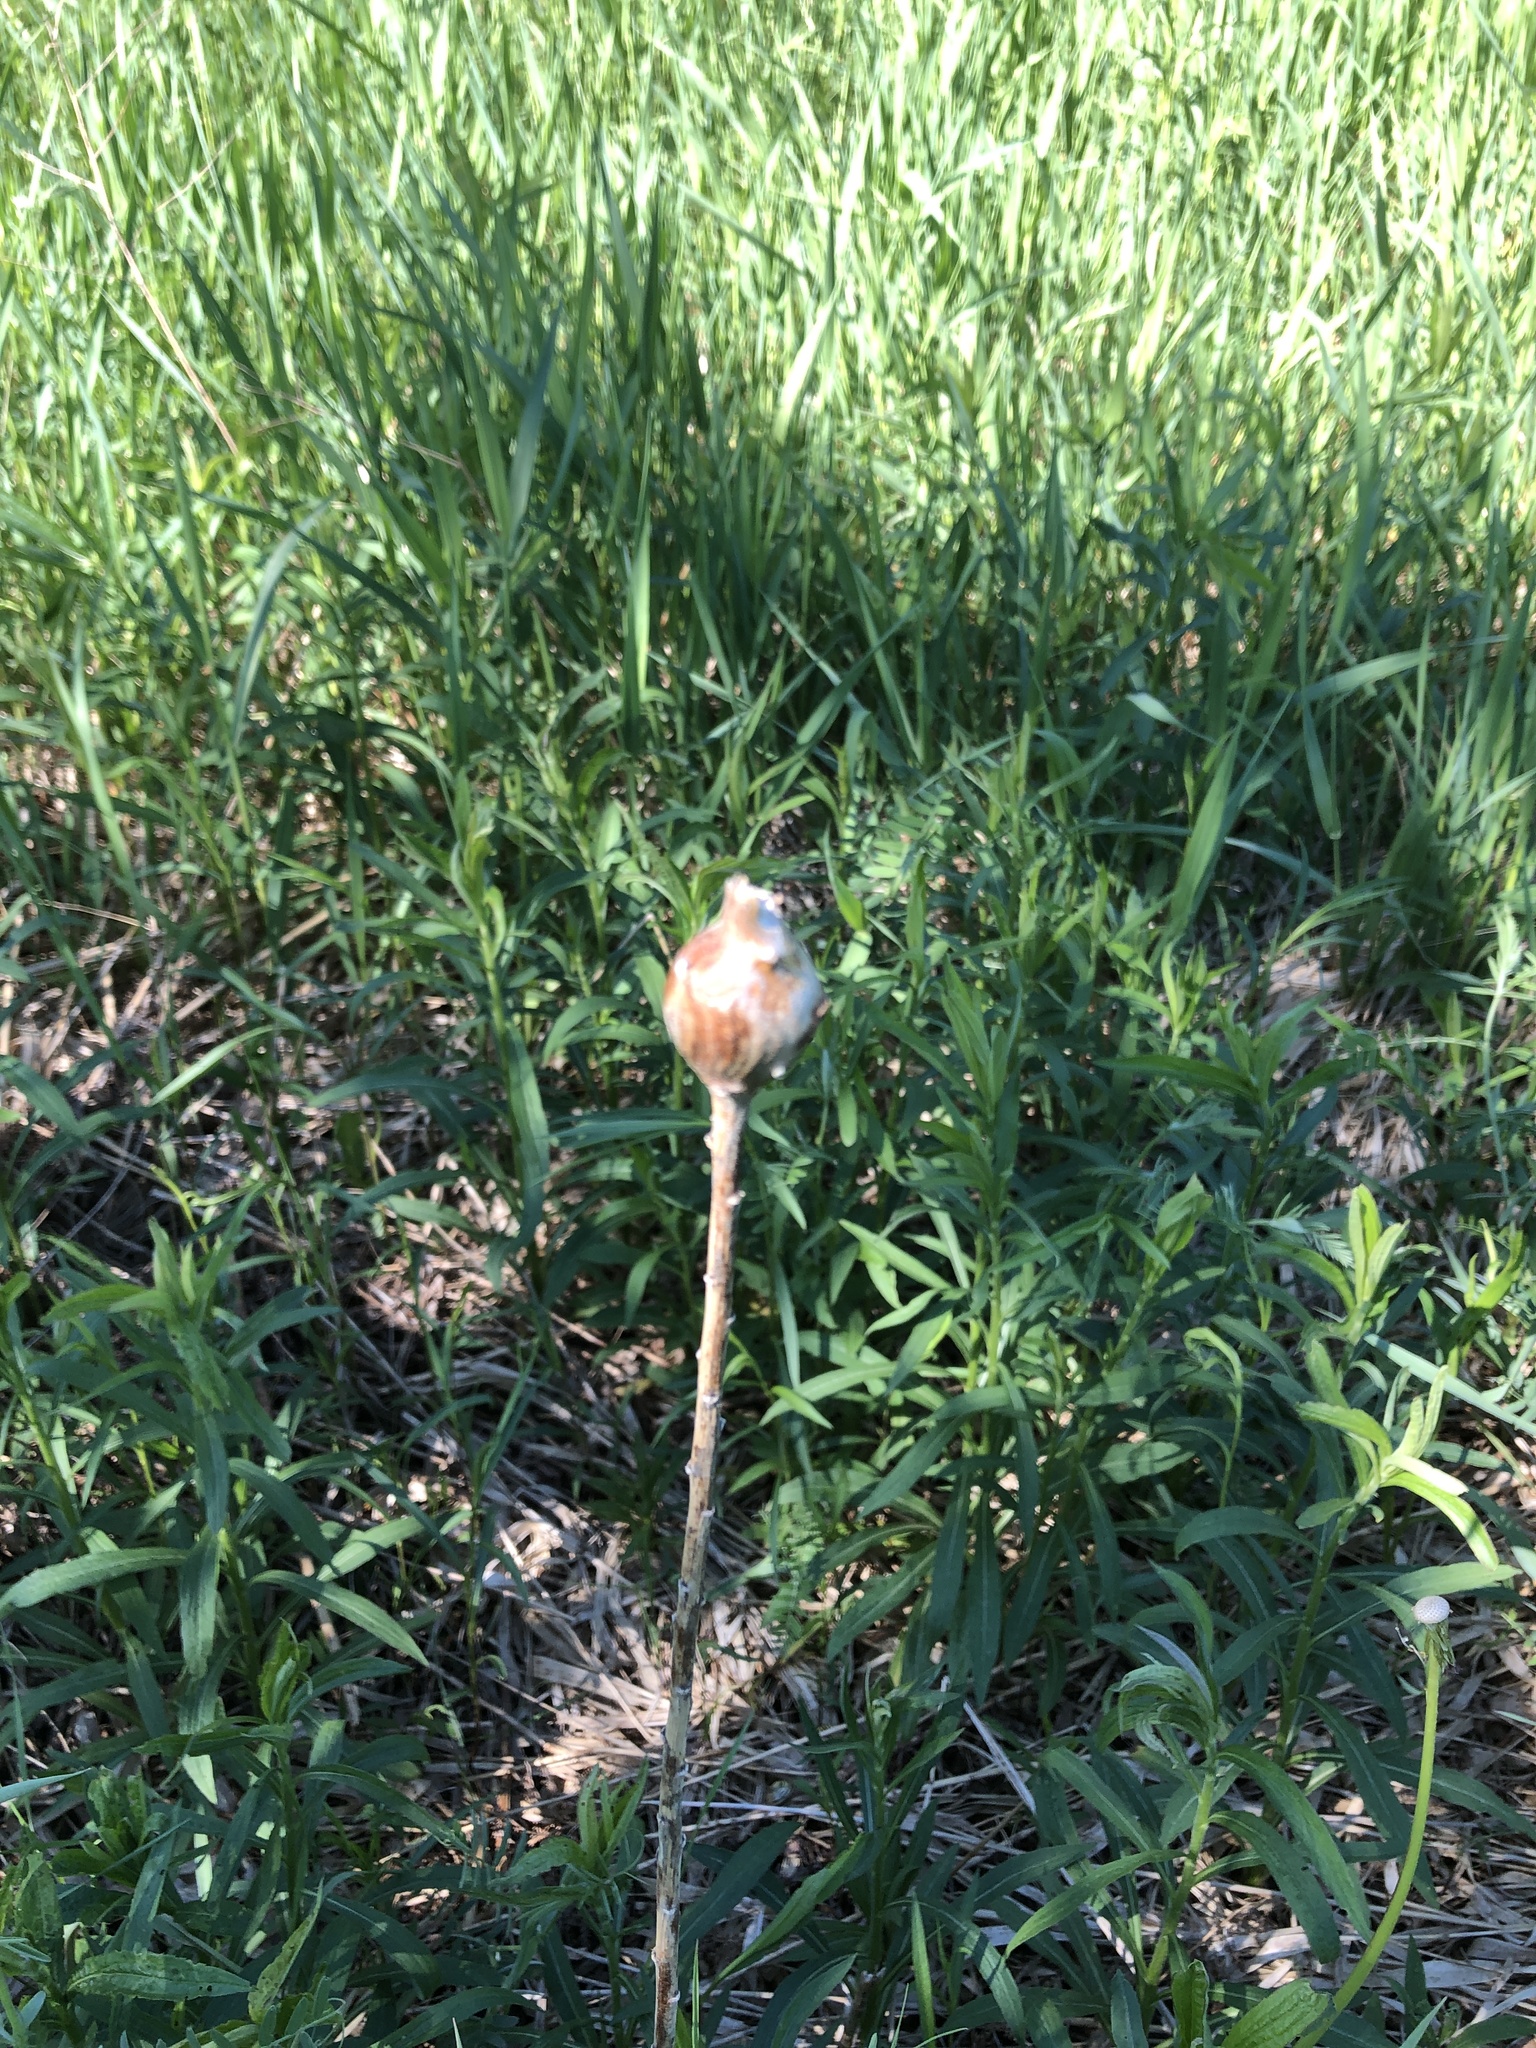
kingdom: Animalia
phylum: Arthropoda
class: Insecta
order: Diptera
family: Tephritidae
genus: Eurosta
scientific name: Eurosta solidaginis
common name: Goldenrod gall fly
